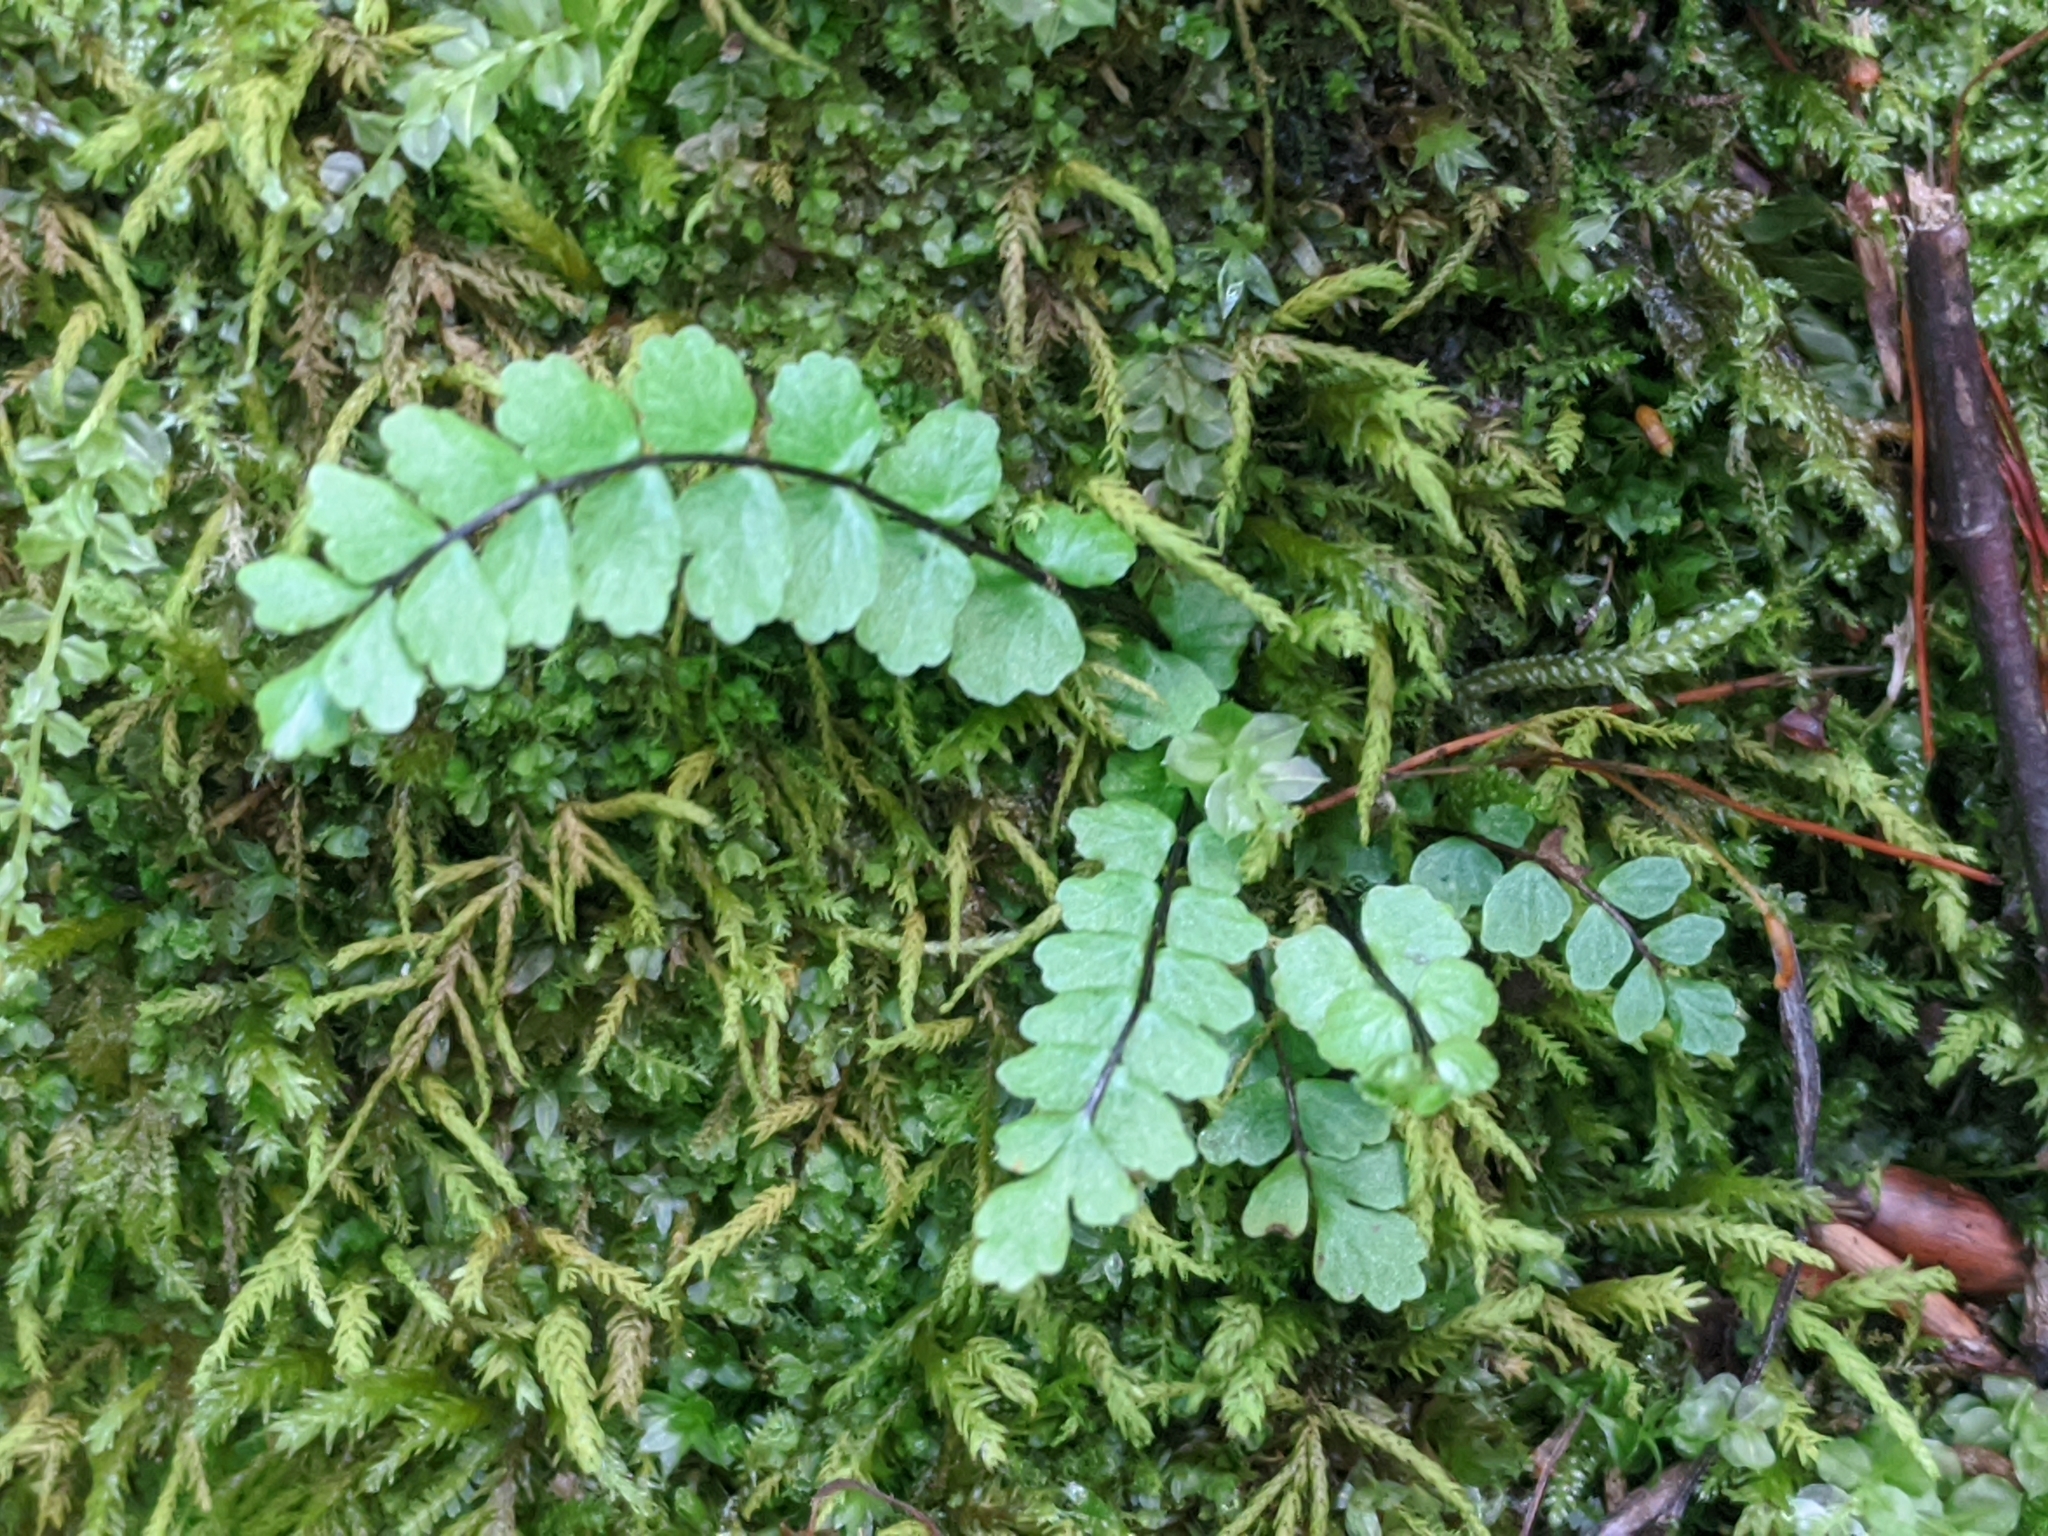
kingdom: Plantae
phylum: Tracheophyta
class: Polypodiopsida
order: Polypodiales
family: Aspleniaceae
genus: Asplenium
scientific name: Asplenium trichomanes
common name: Maidenhair spleenwort
